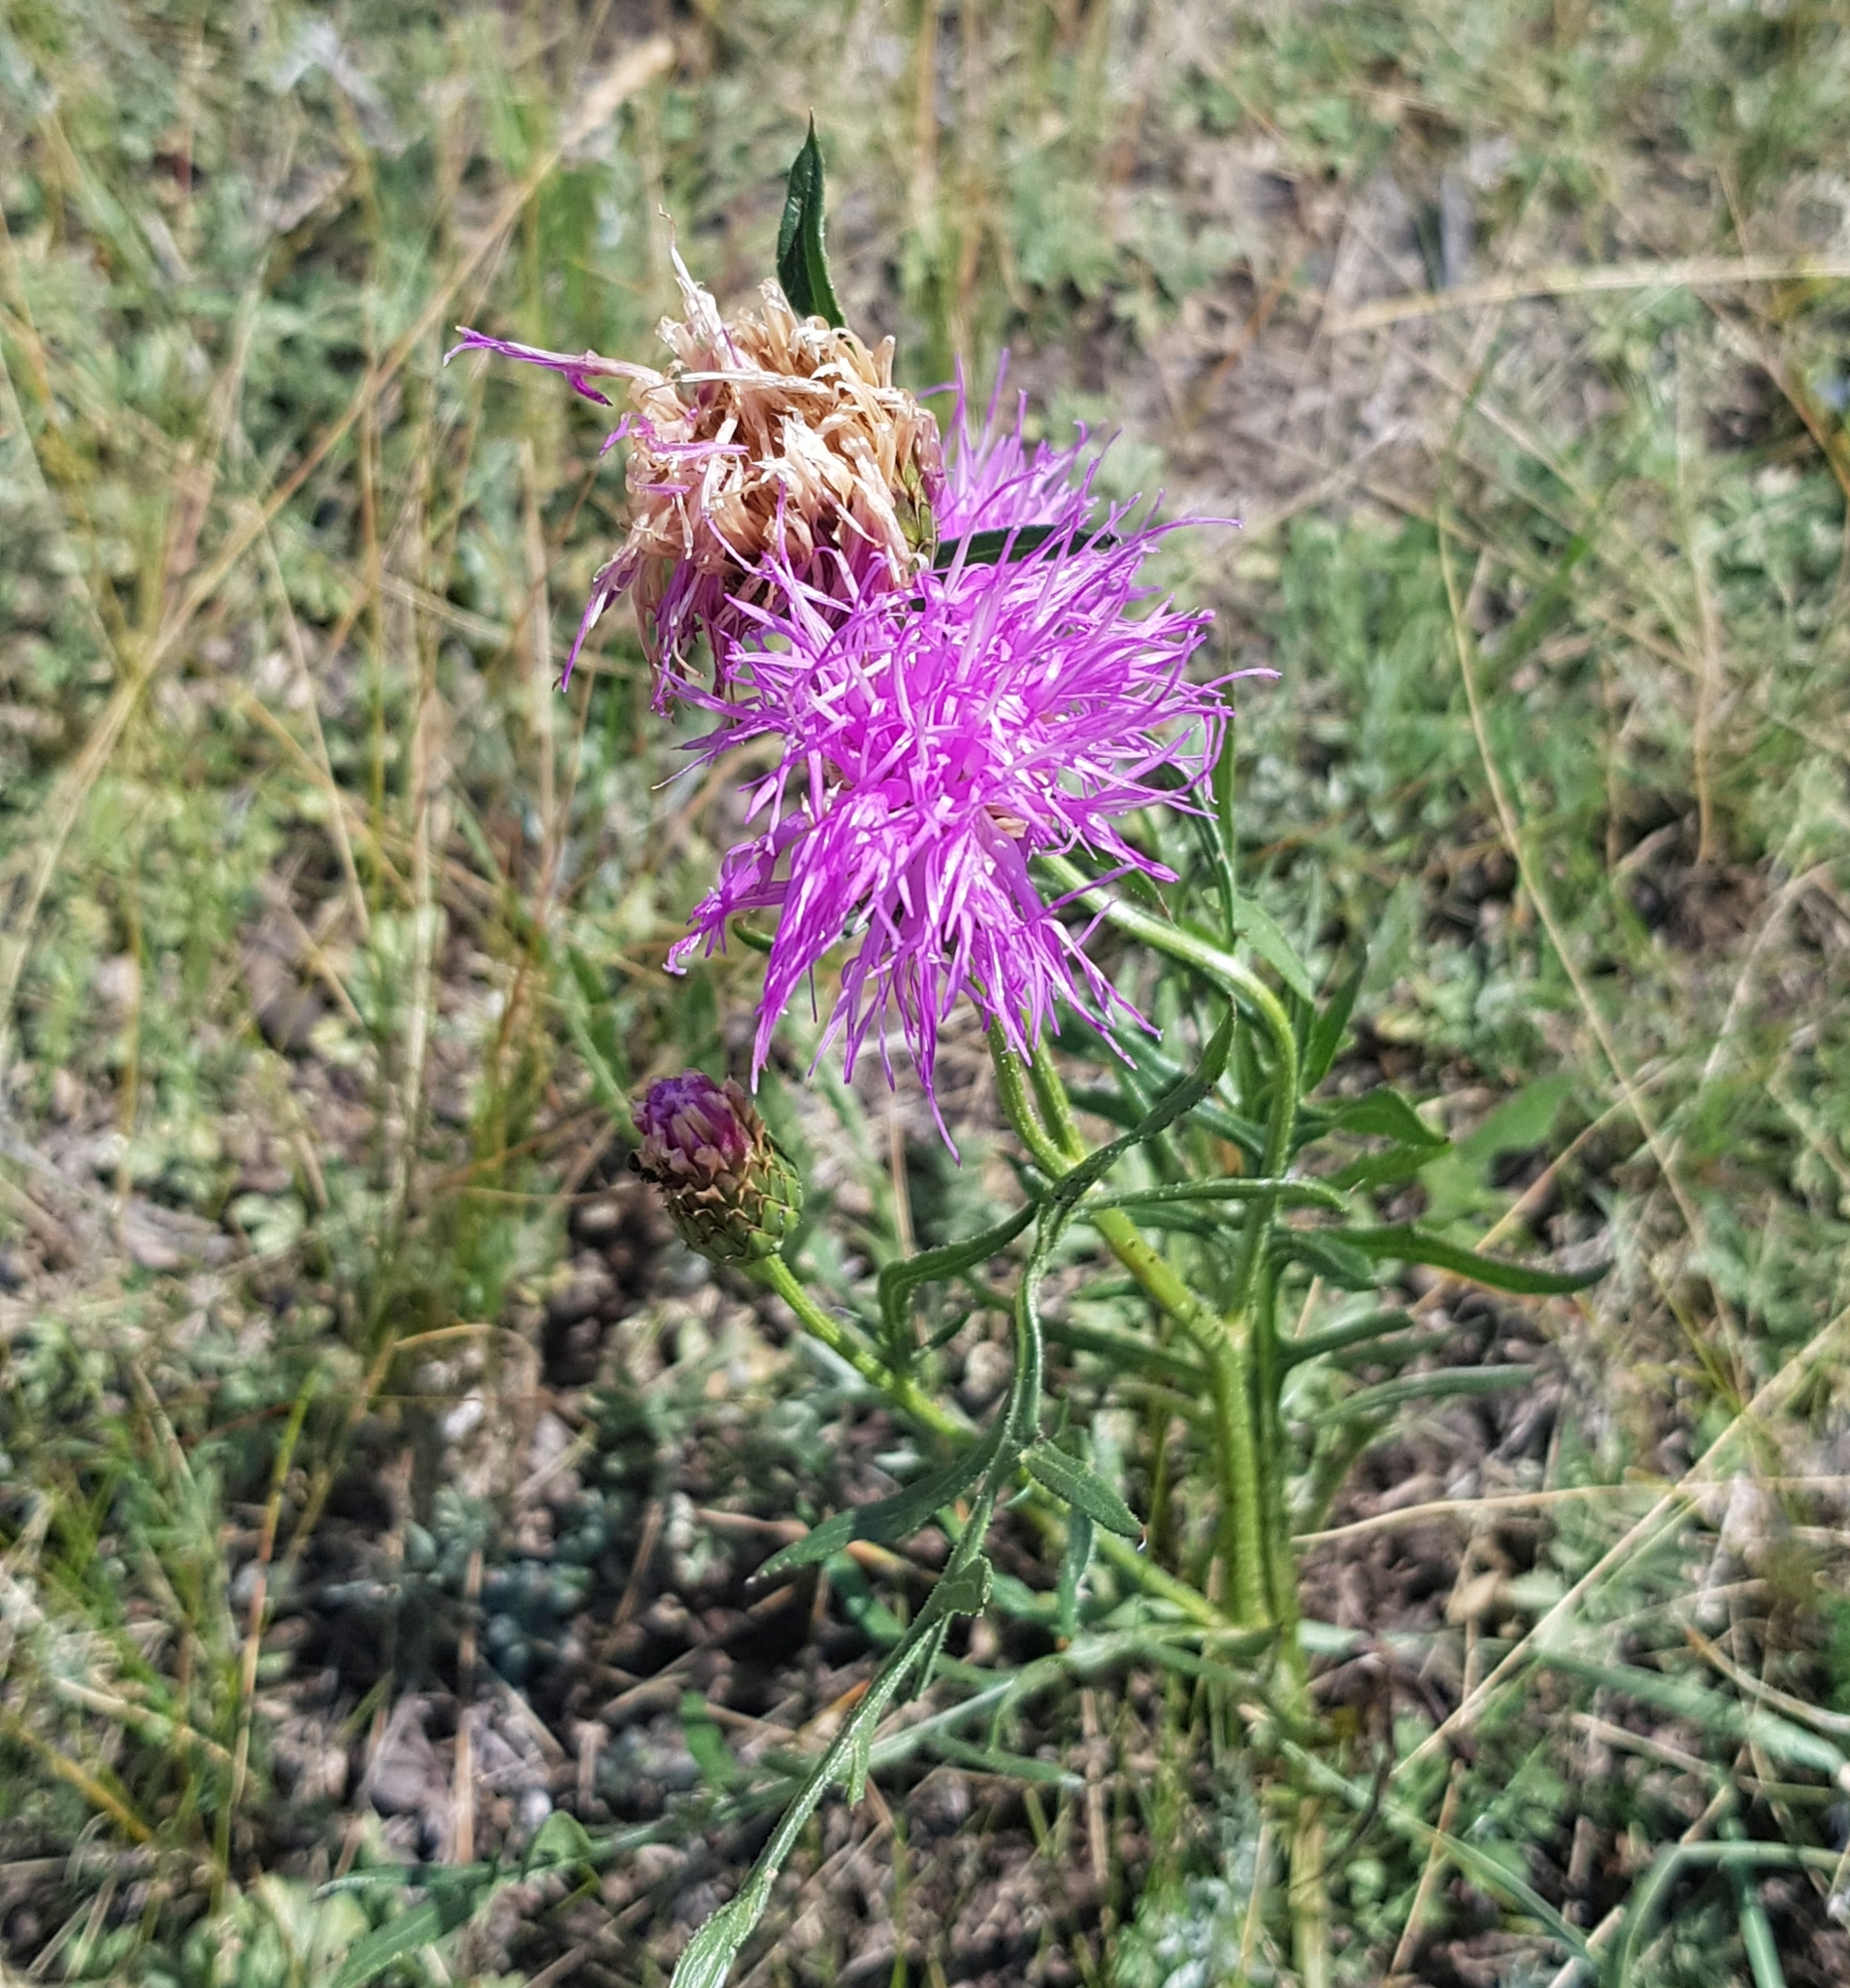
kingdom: Plantae
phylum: Tracheophyta
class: Magnoliopsida
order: Asterales
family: Asteraceae
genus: Klasea
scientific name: Klasea centauroides
